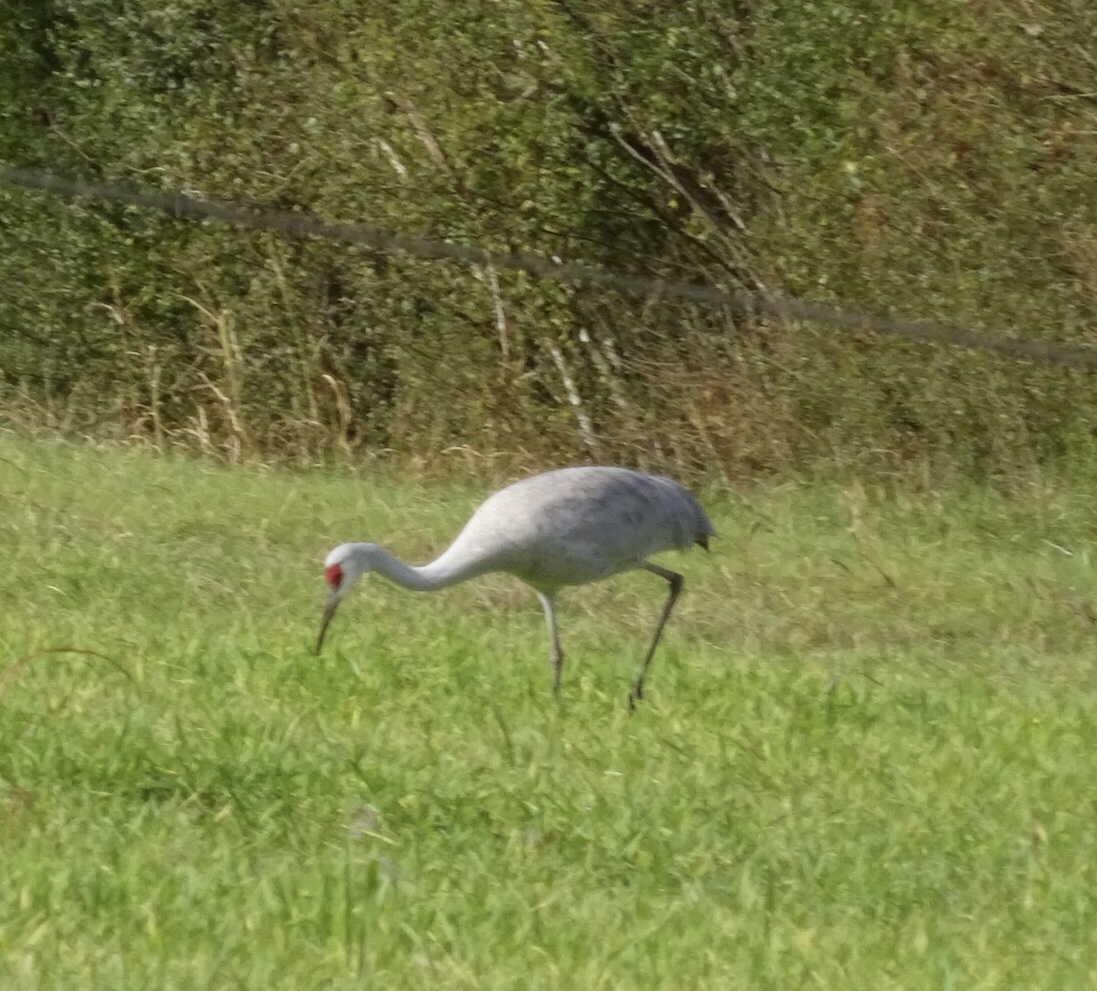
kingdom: Animalia
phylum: Chordata
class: Aves
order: Gruiformes
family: Gruidae
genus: Grus
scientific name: Grus canadensis
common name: Sandhill crane
